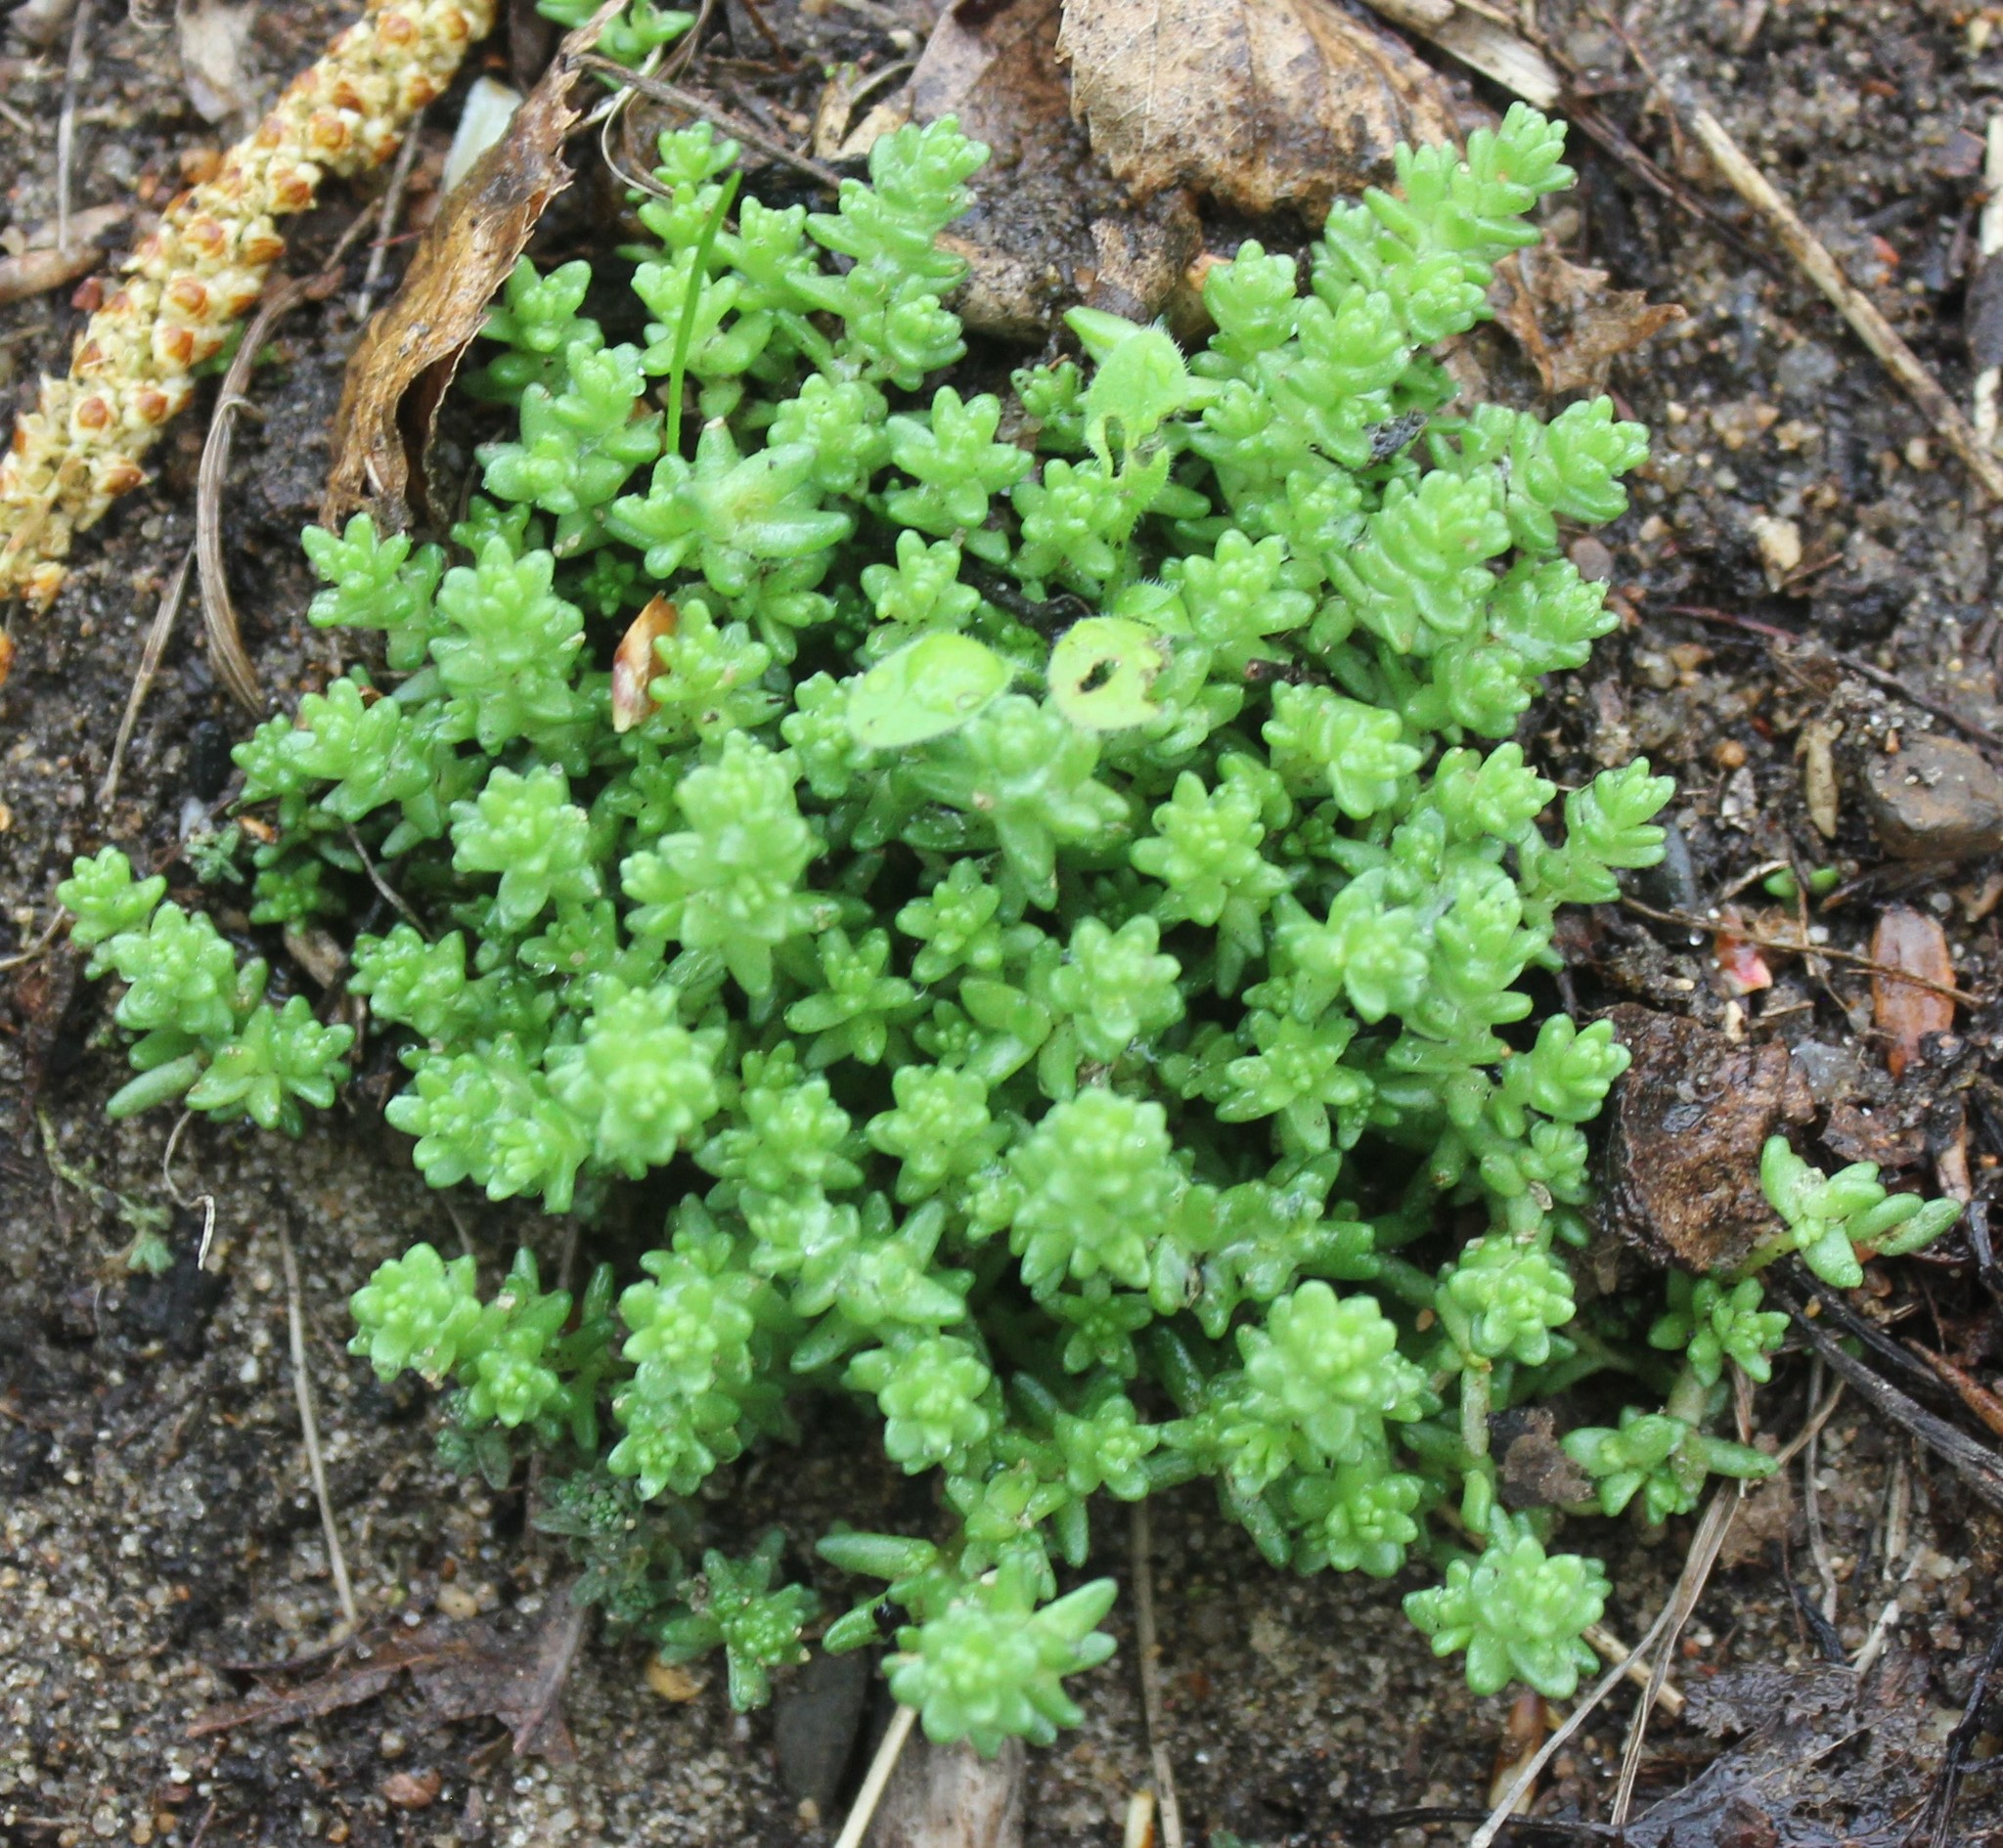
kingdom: Plantae
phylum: Tracheophyta
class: Magnoliopsida
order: Saxifragales
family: Crassulaceae
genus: Sedum
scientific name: Sedum acre
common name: Biting stonecrop
